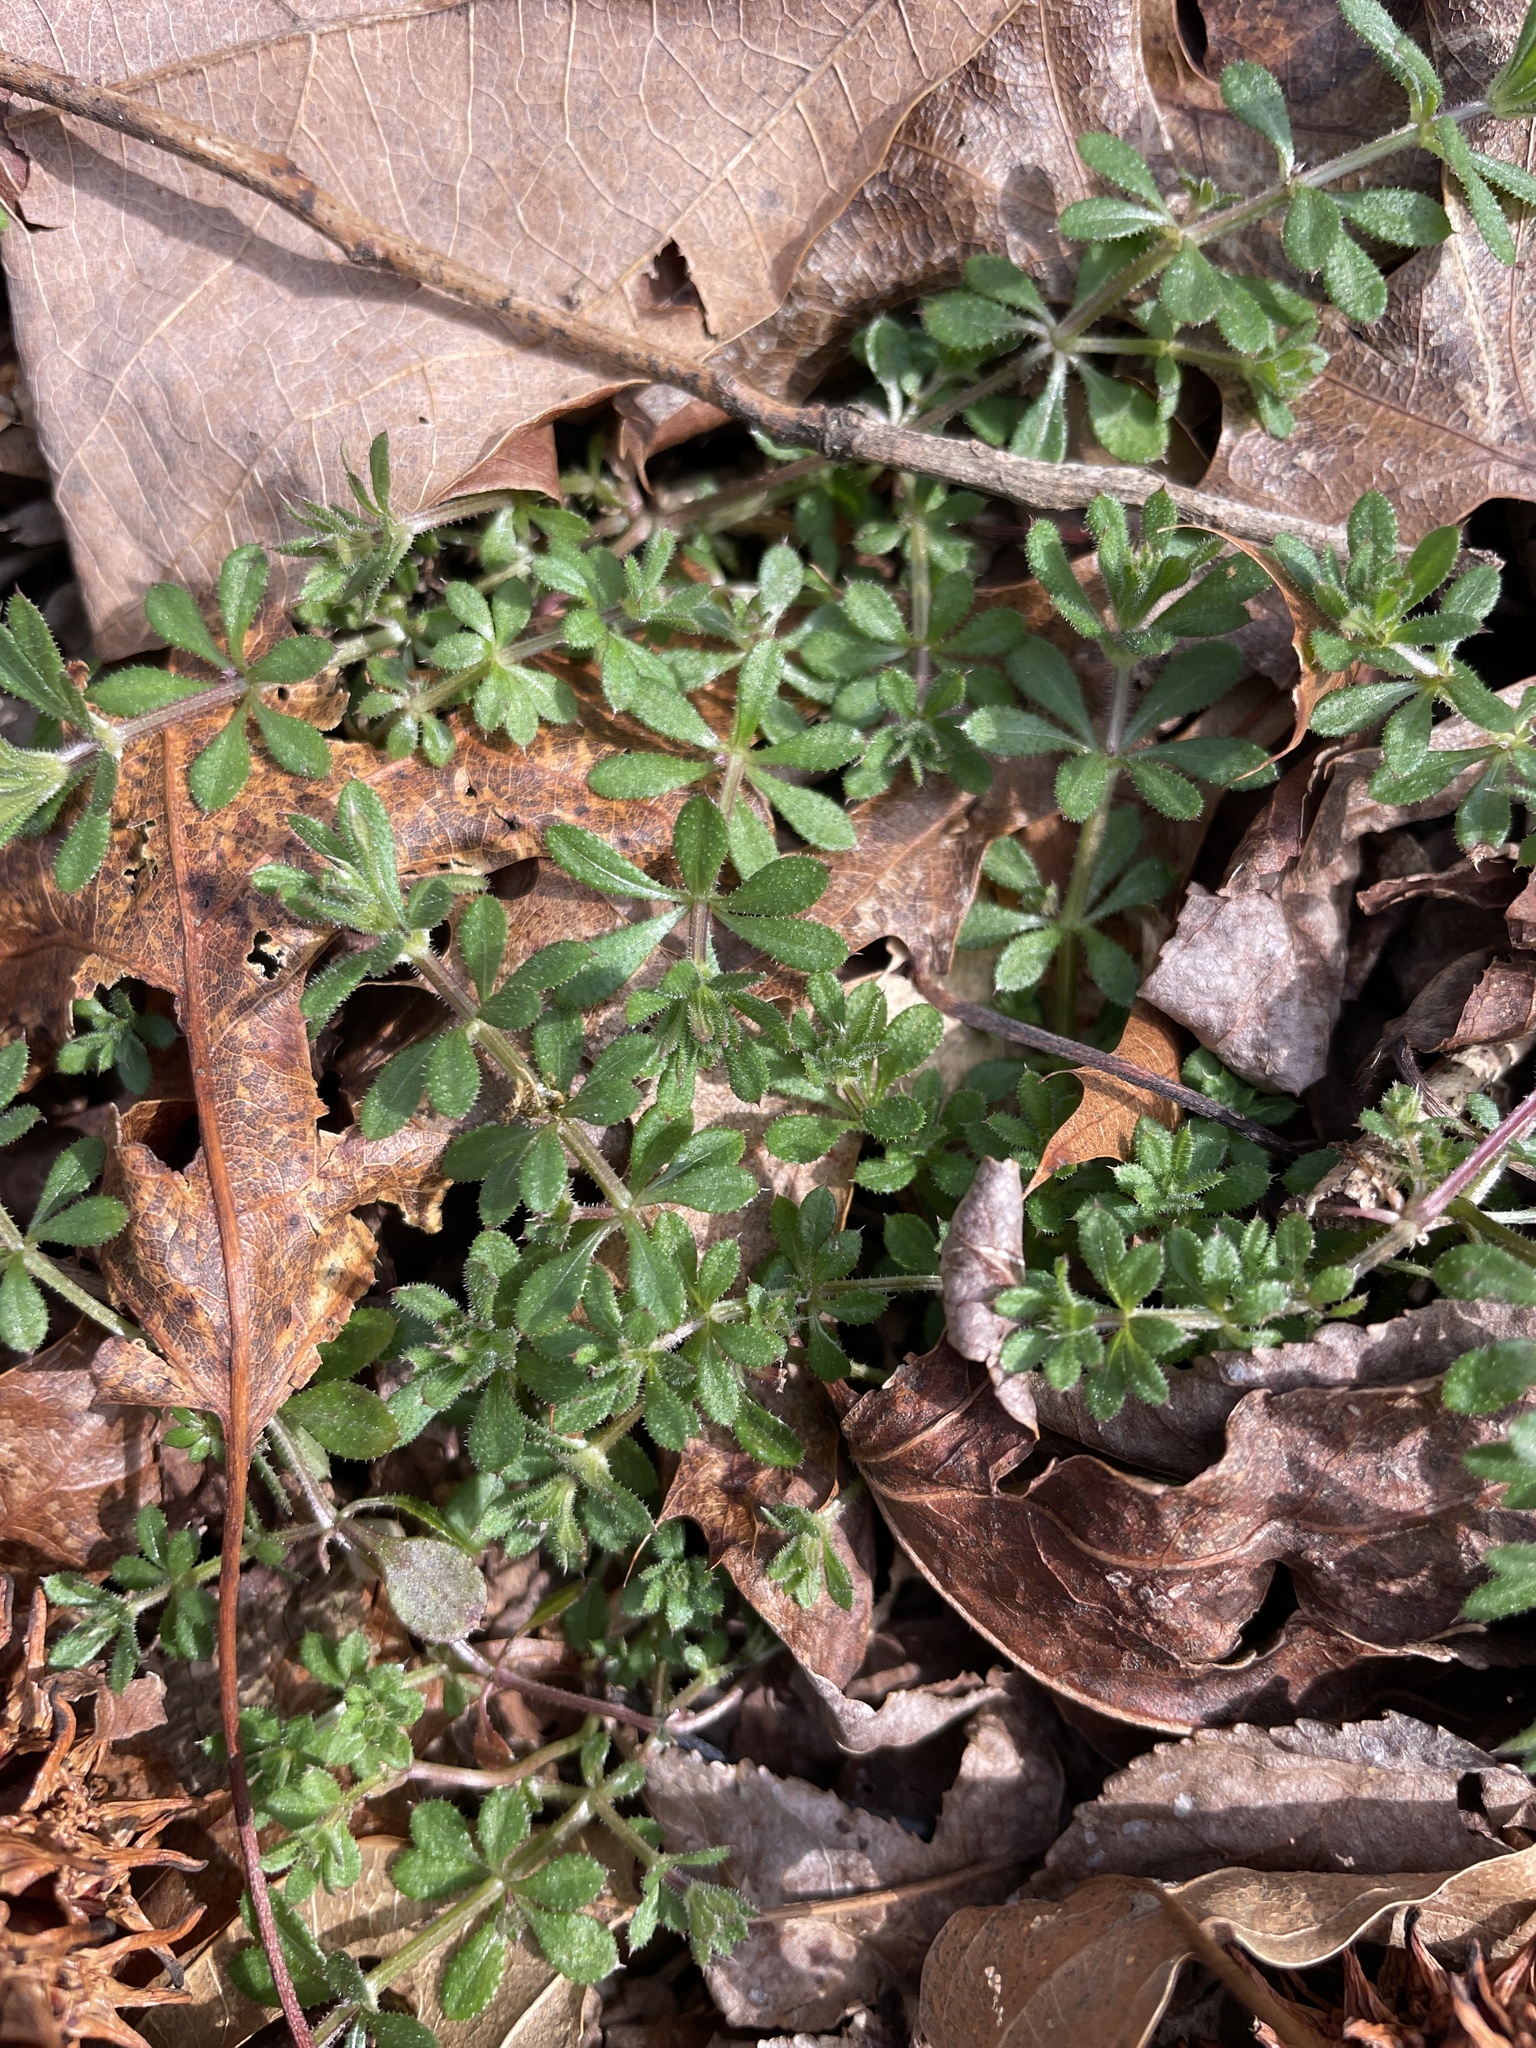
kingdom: Plantae
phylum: Tracheophyta
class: Magnoliopsida
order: Gentianales
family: Rubiaceae
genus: Galium
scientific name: Galium aparine
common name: Cleavers
